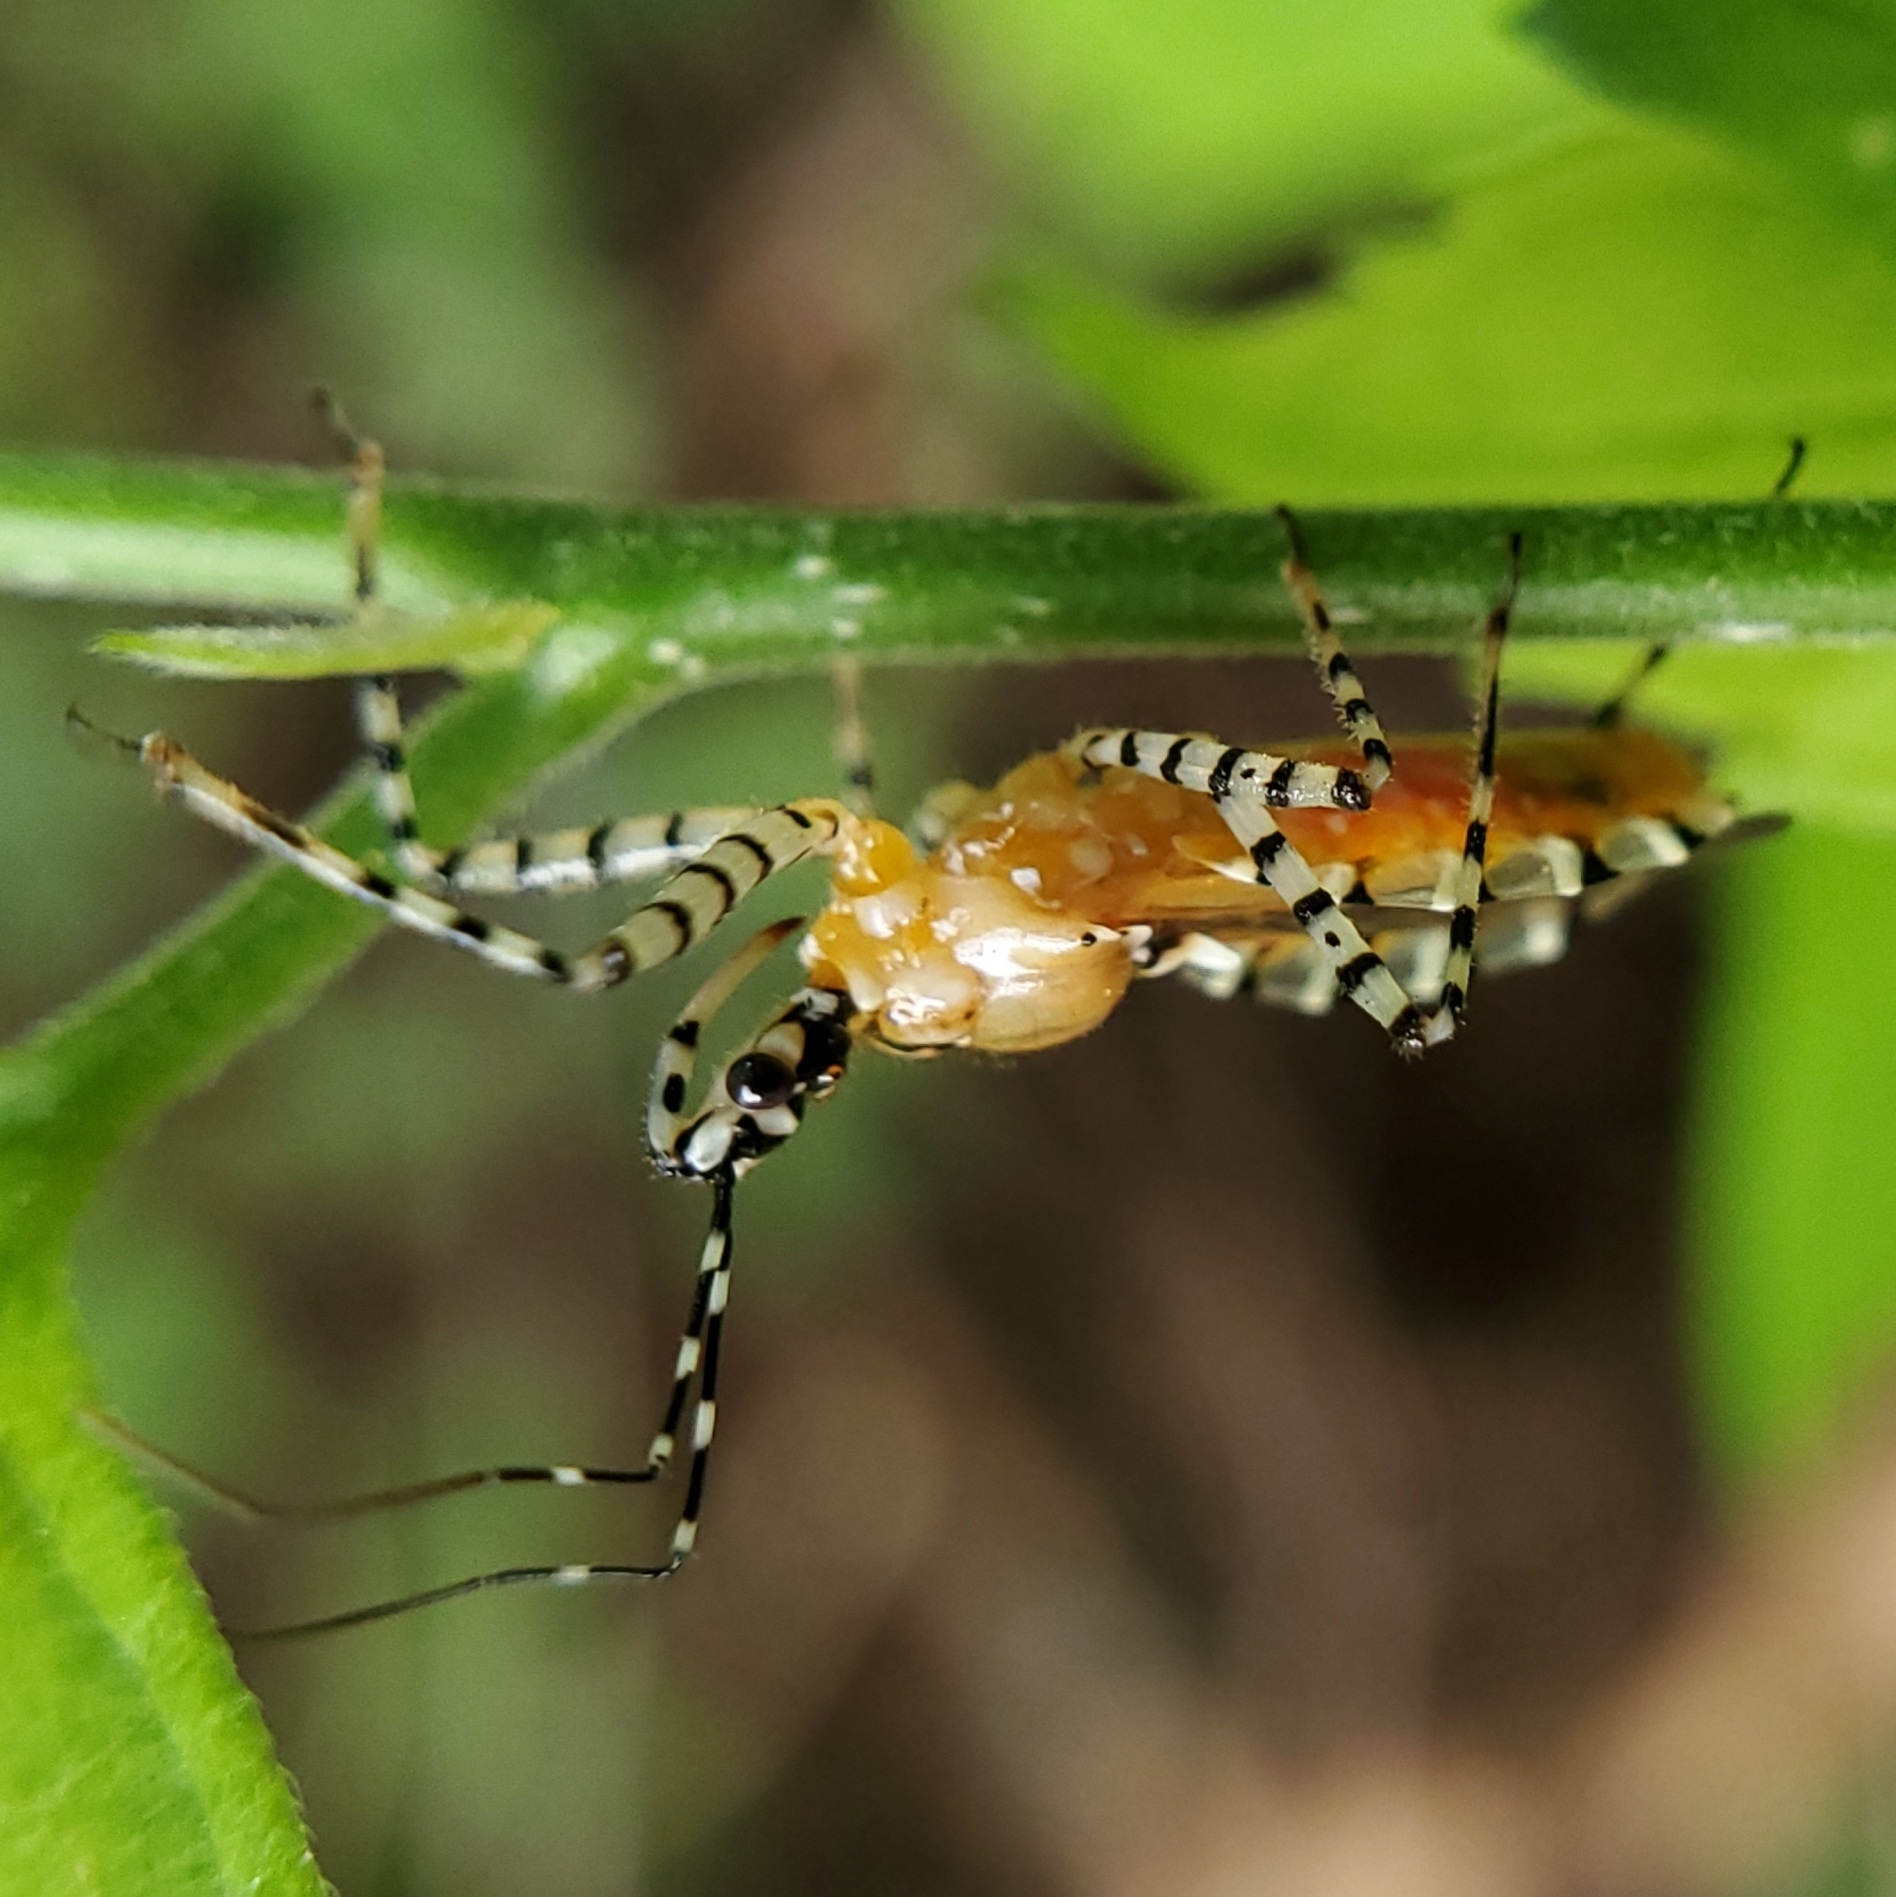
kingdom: Animalia
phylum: Arthropoda
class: Insecta
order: Hemiptera
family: Reduviidae
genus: Pselliopus
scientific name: Pselliopus cinctus
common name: Ringed assassin bug
